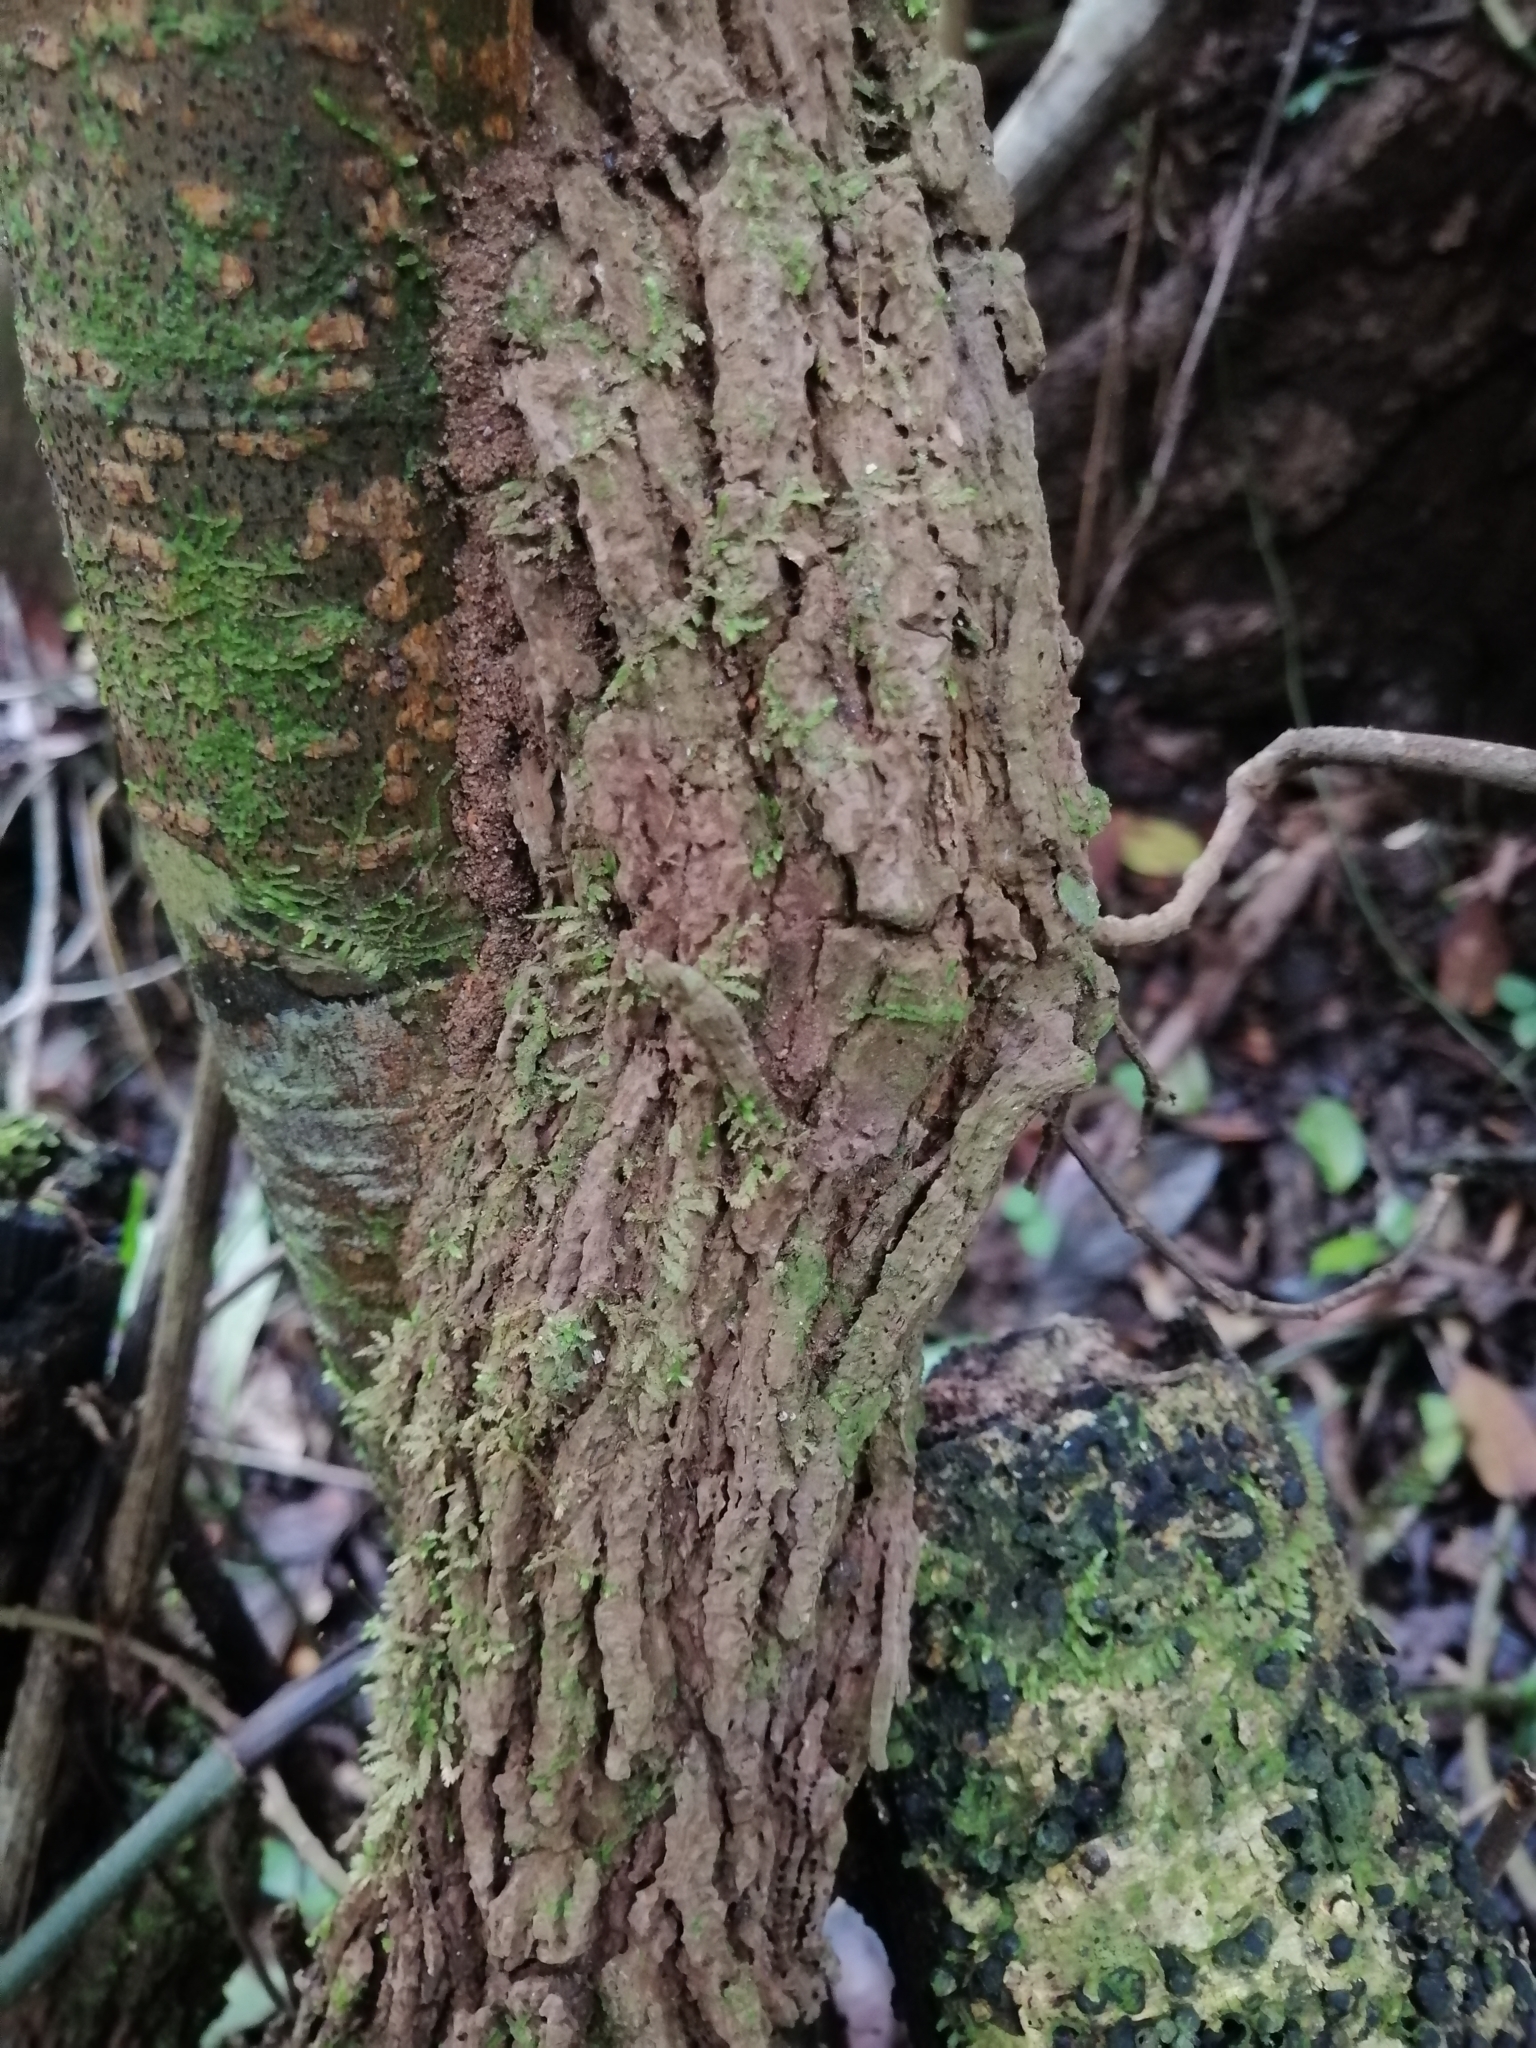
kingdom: Plantae
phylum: Tracheophyta
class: Magnoliopsida
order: Piperales
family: Aristolochiaceae
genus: Isotrema
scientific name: Isotrema paracletum
